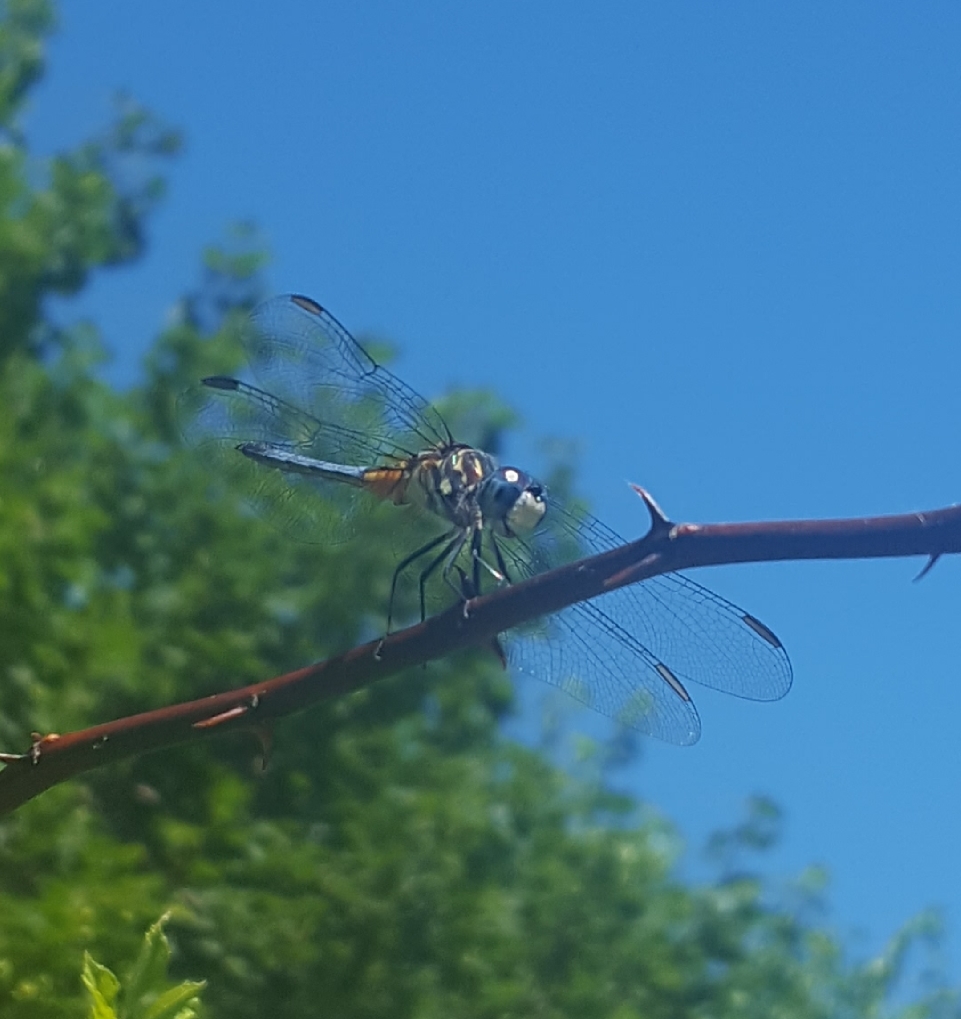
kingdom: Animalia
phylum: Arthropoda
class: Insecta
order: Odonata
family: Libellulidae
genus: Pachydiplax
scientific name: Pachydiplax longipennis
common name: Blue dasher
